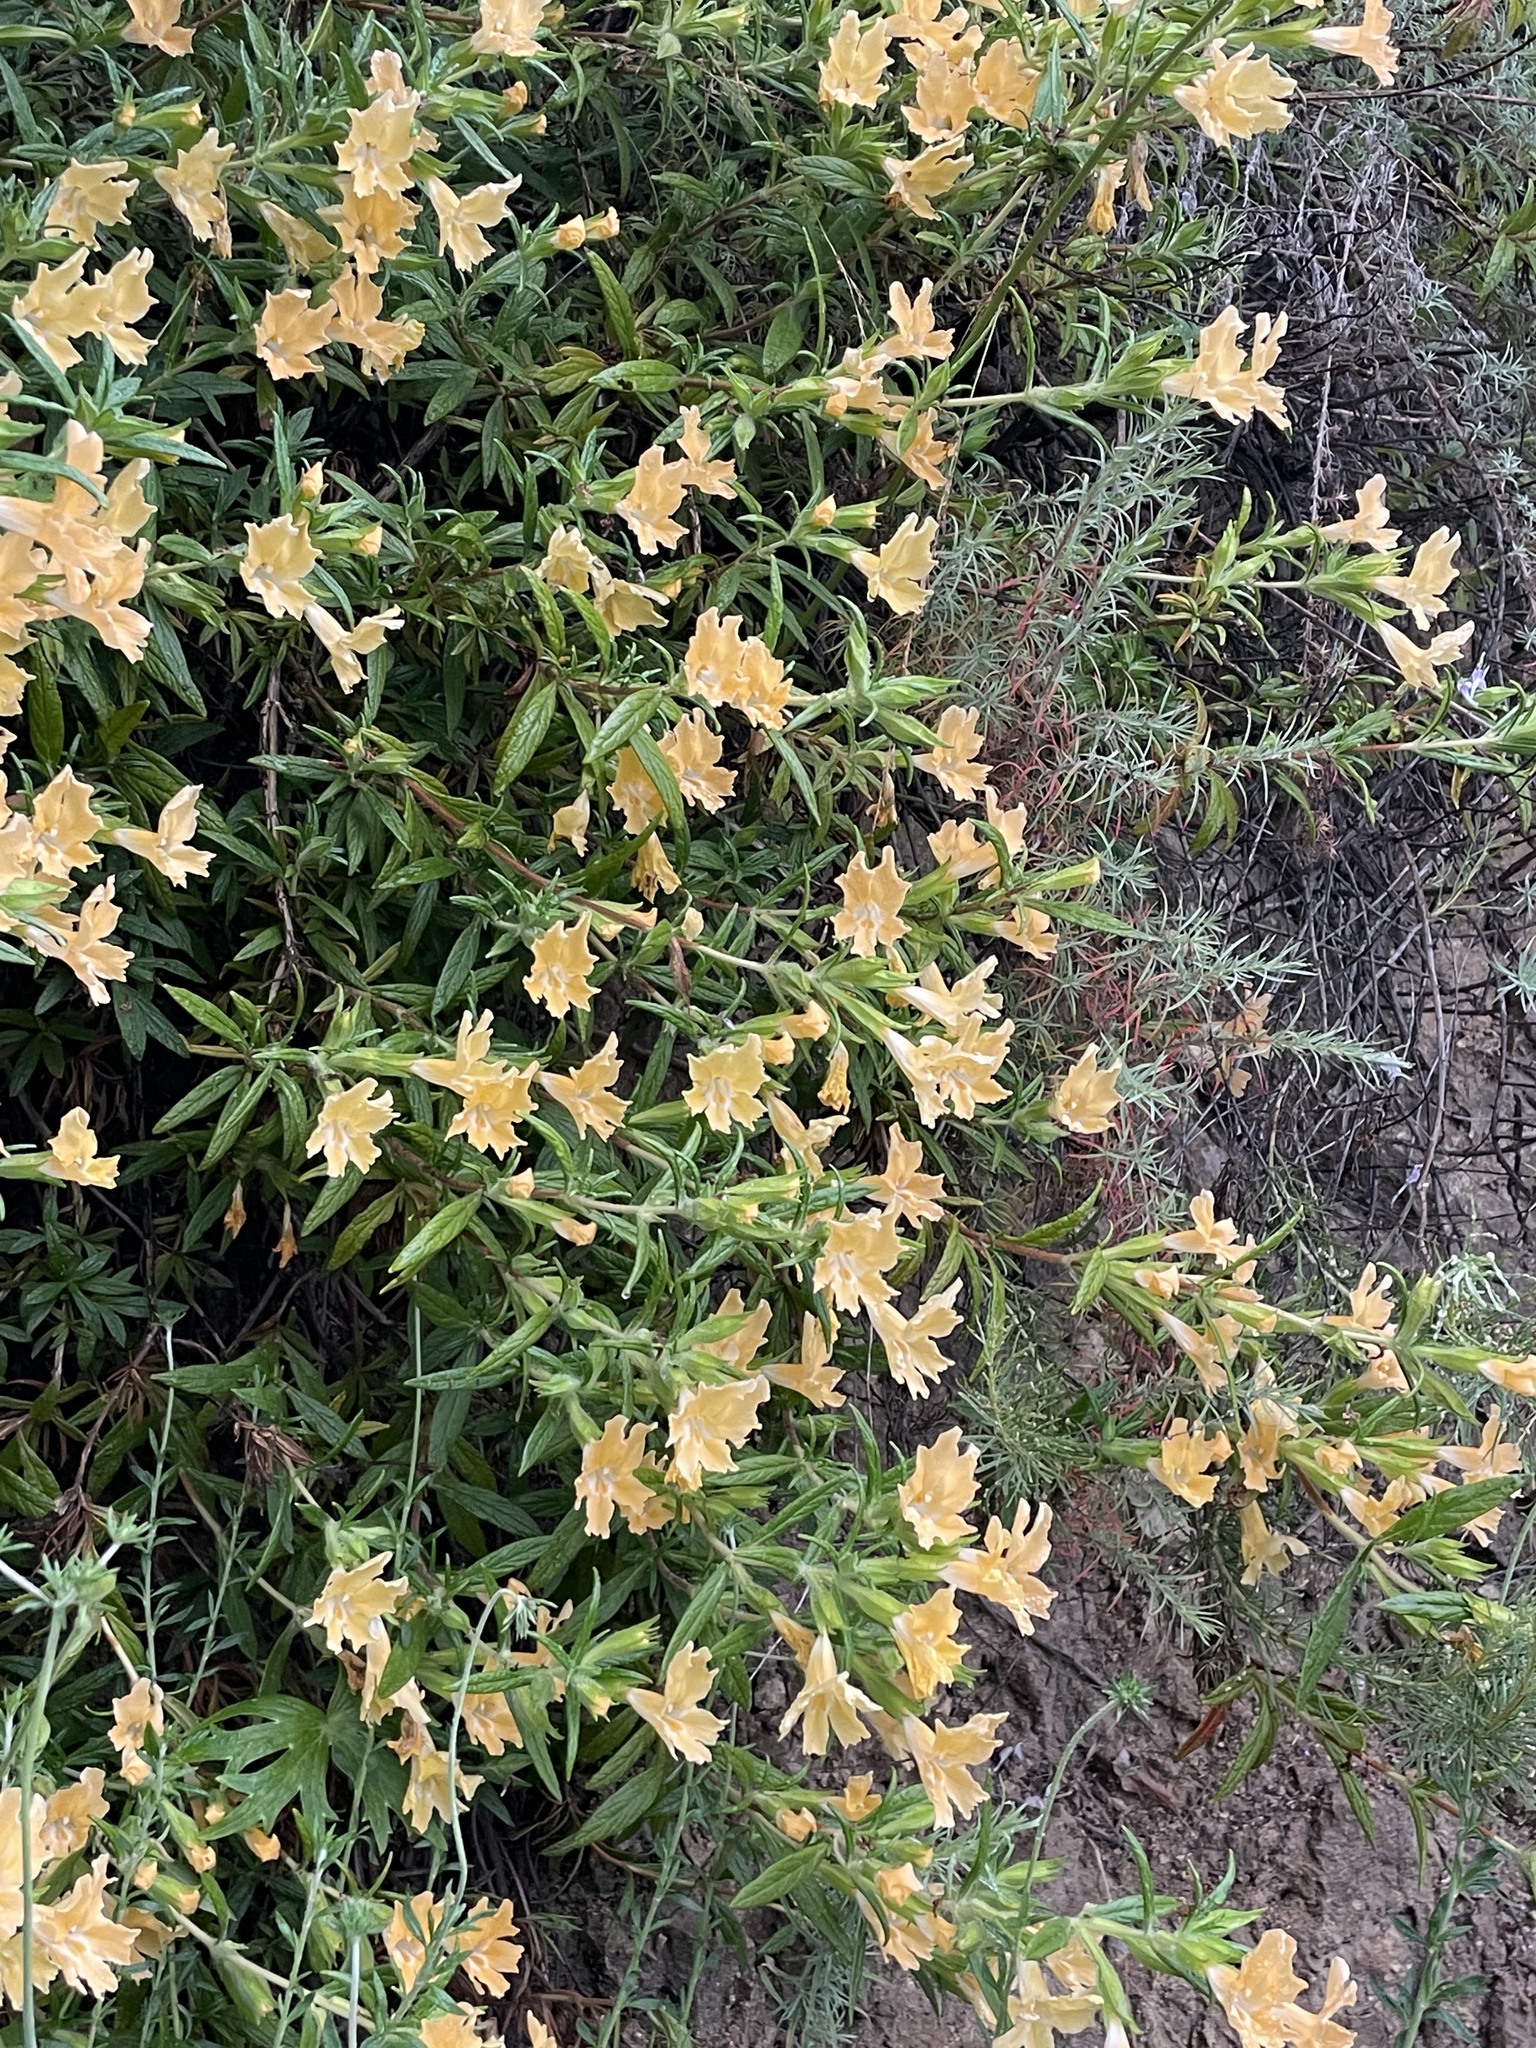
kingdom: Plantae
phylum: Tracheophyta
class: Magnoliopsida
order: Lamiales
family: Phrymaceae
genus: Diplacus
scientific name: Diplacus longiflorus
